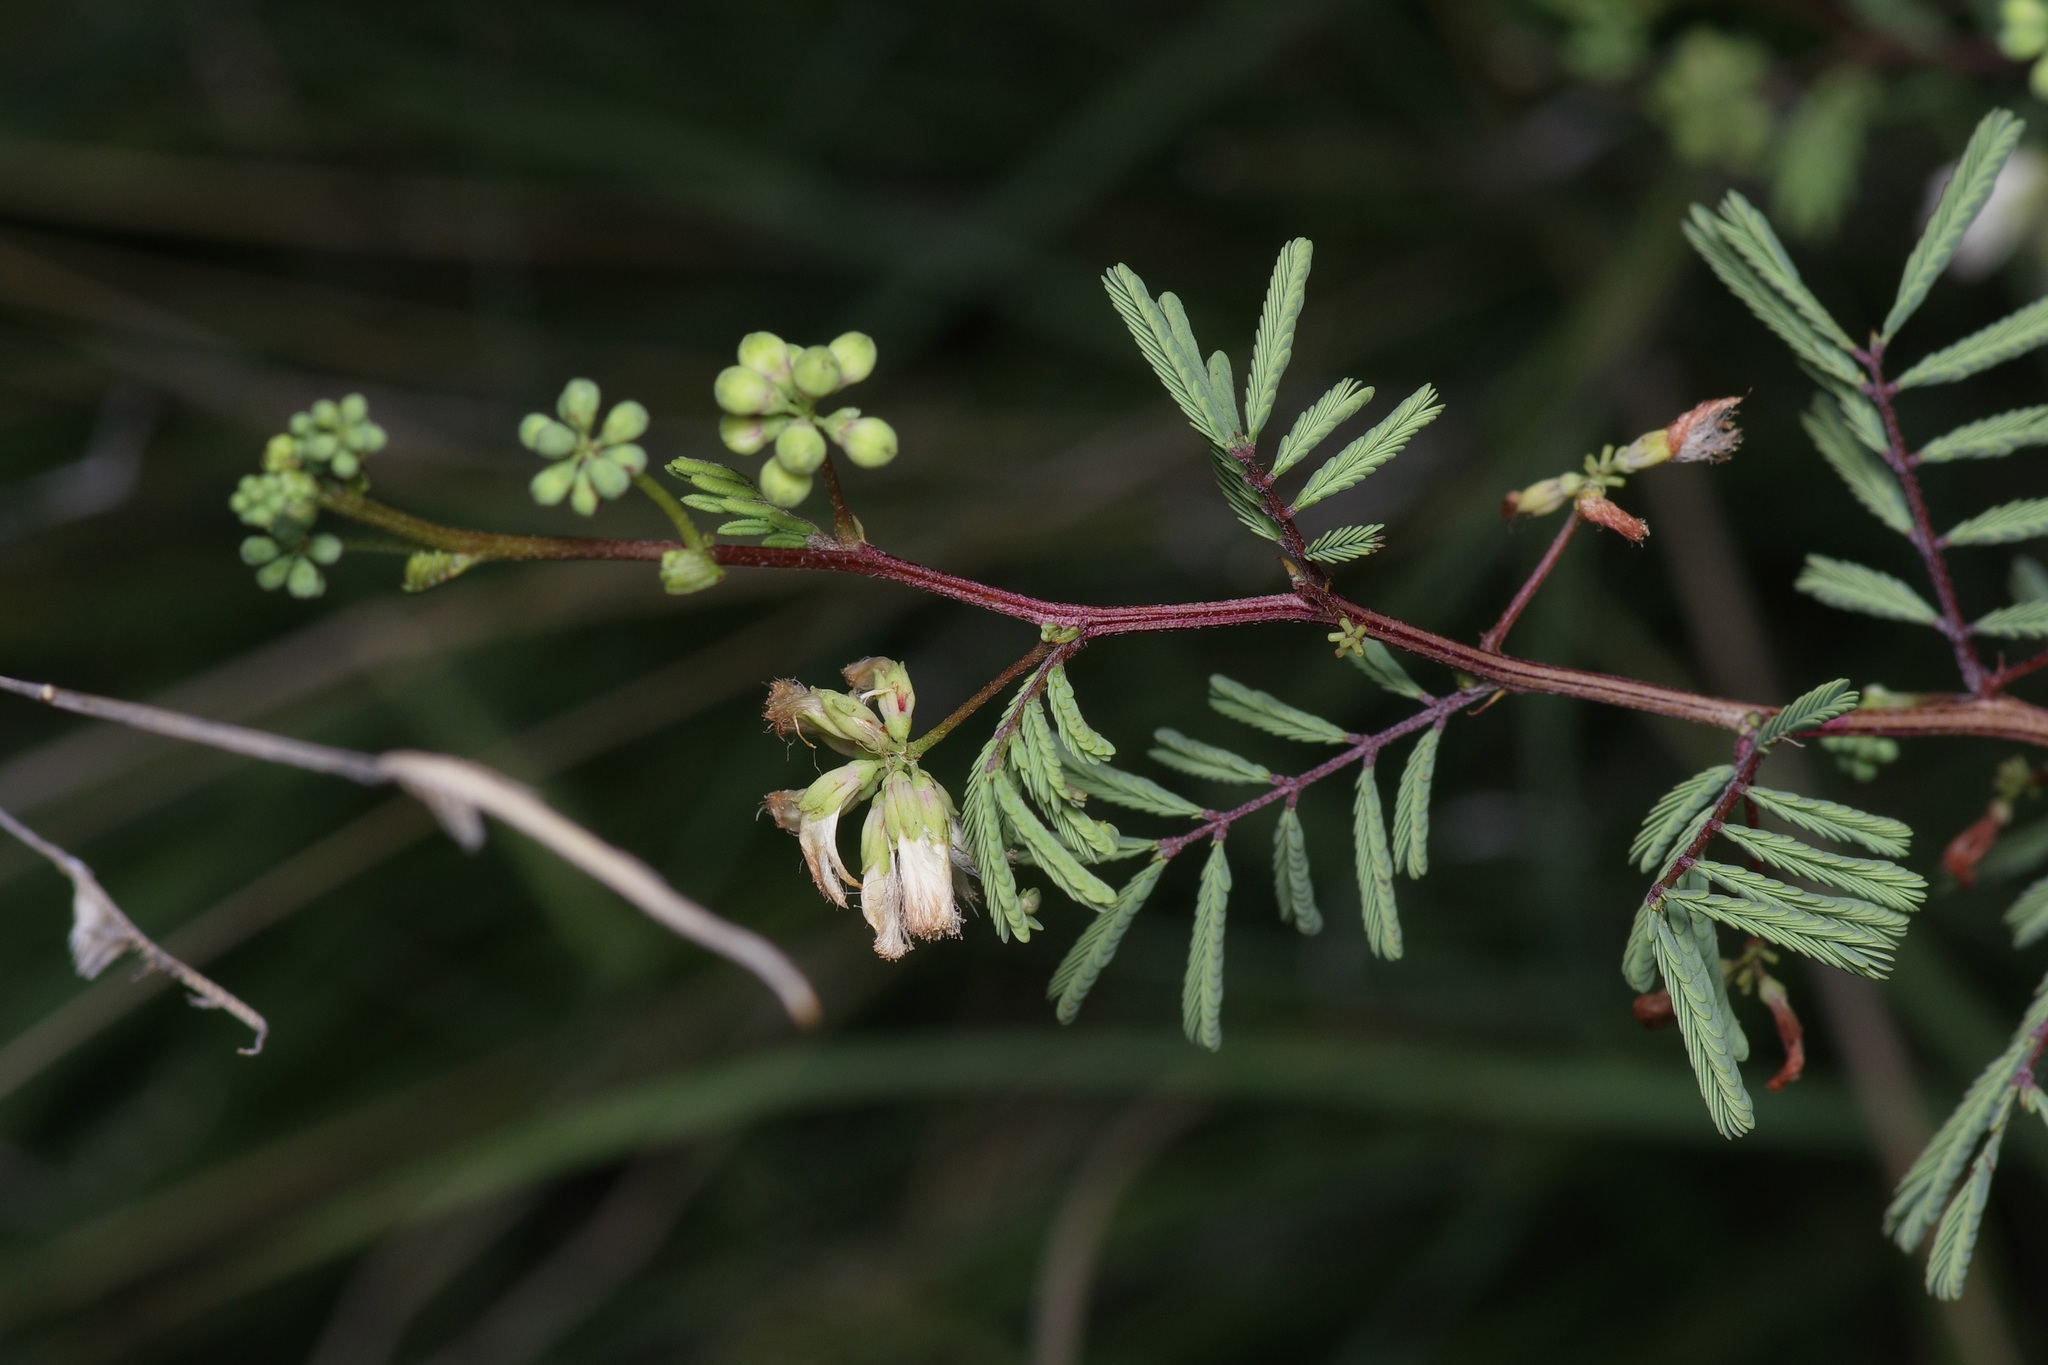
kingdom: Plantae
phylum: Tracheophyta
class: Magnoliopsida
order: Fabales
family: Fabaceae
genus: Acaciella
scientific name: Acaciella angustissima
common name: Prairie acacia
